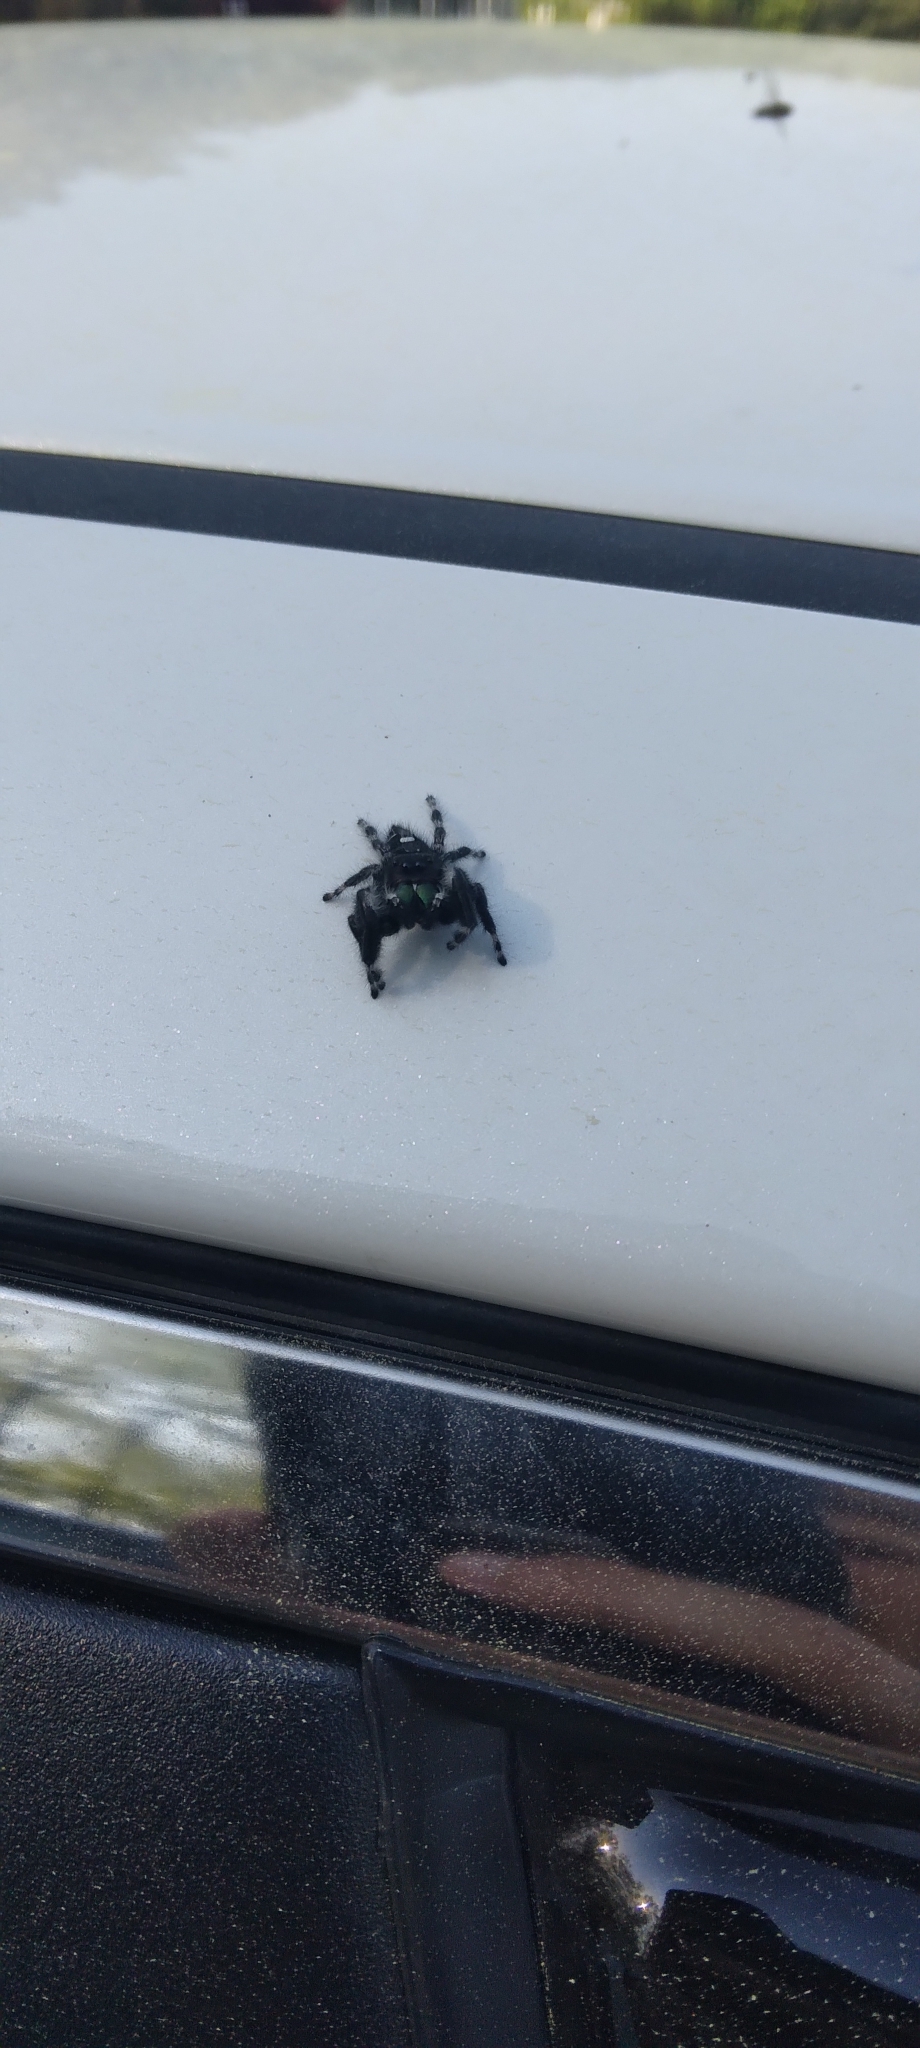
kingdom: Animalia
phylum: Arthropoda
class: Arachnida
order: Araneae
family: Salticidae
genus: Phidippus
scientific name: Phidippus audax
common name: Bold jumper
